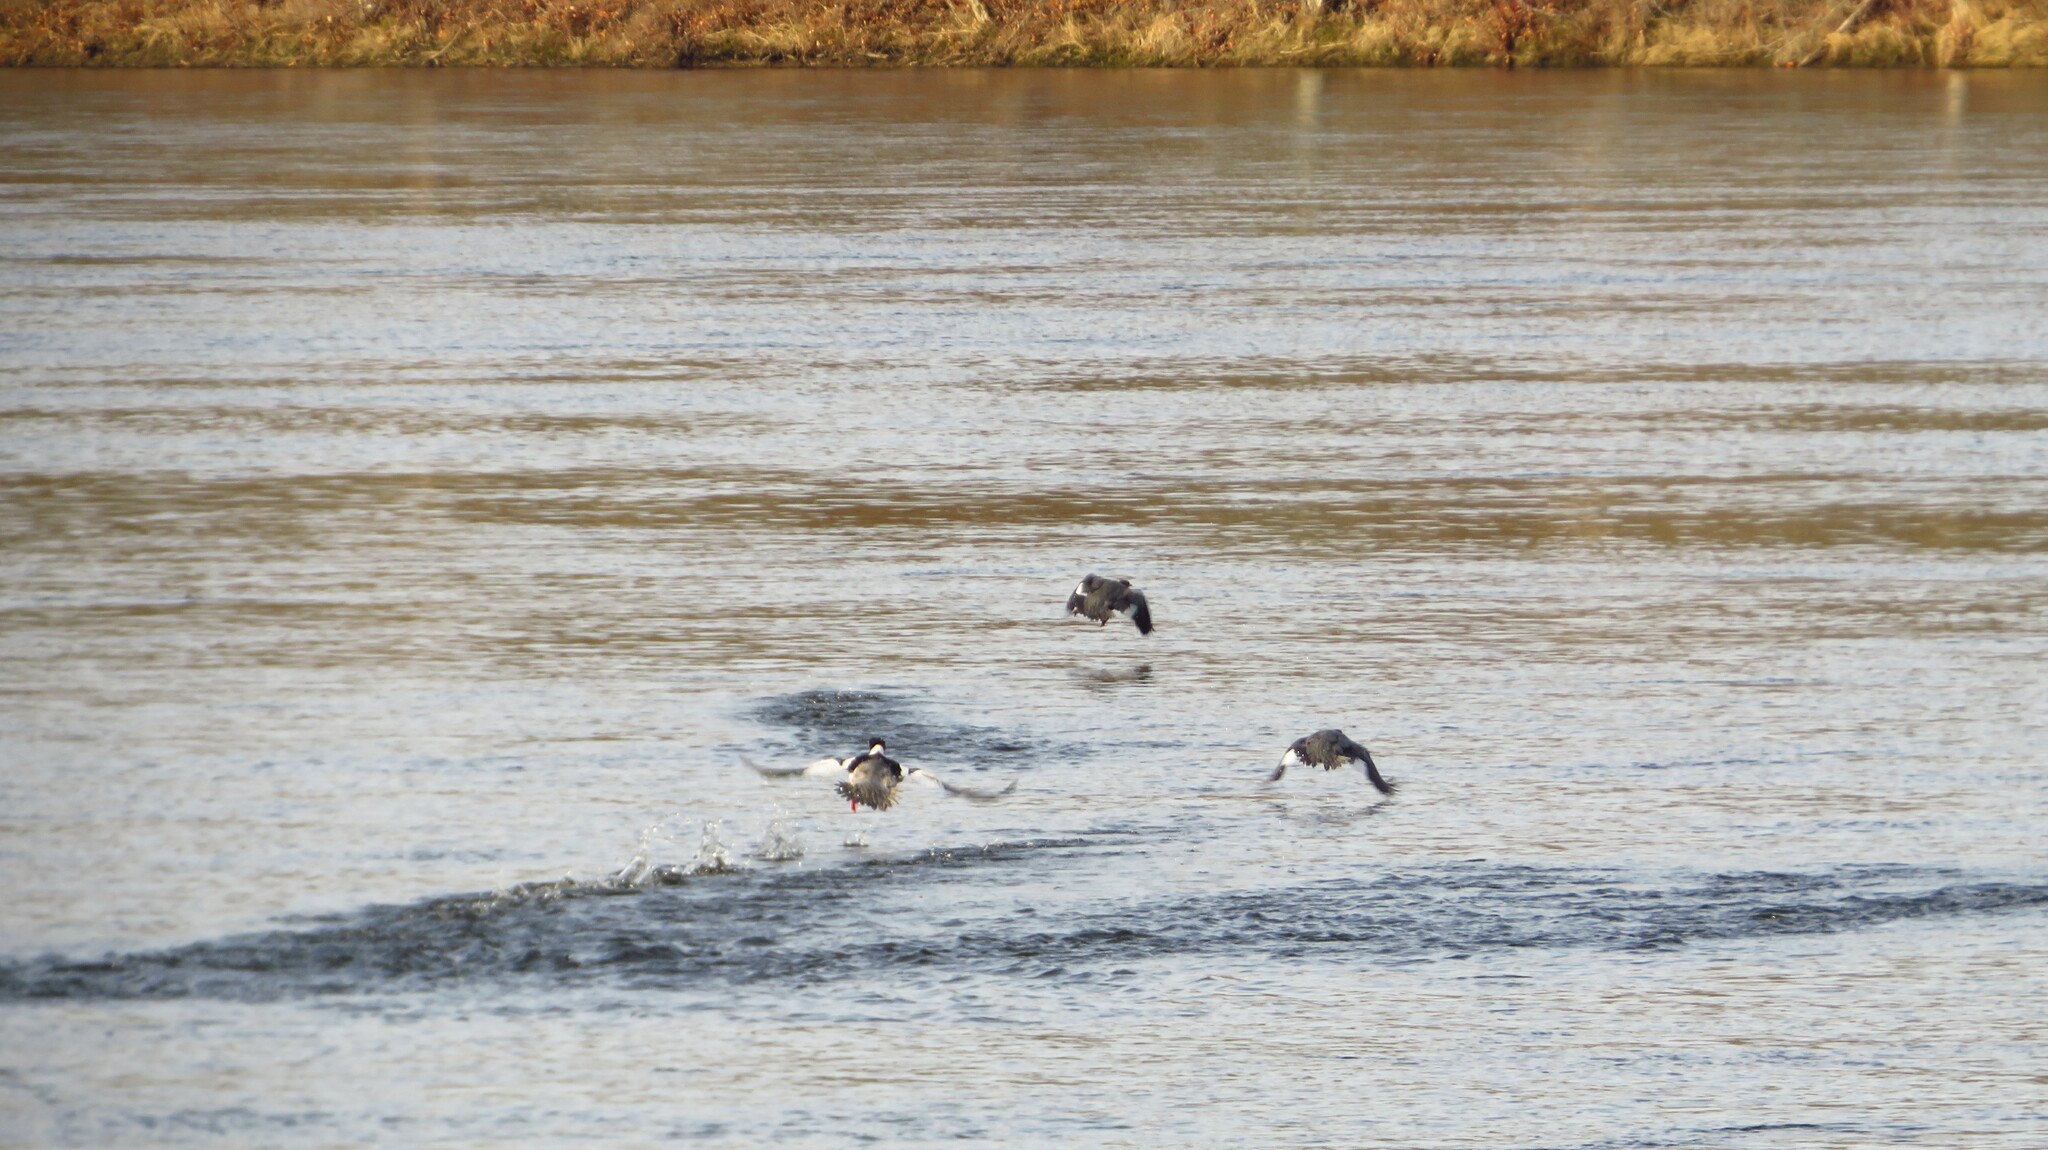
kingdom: Animalia
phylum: Chordata
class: Aves
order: Anseriformes
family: Anatidae
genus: Mergus
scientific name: Mergus merganser
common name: Common merganser
